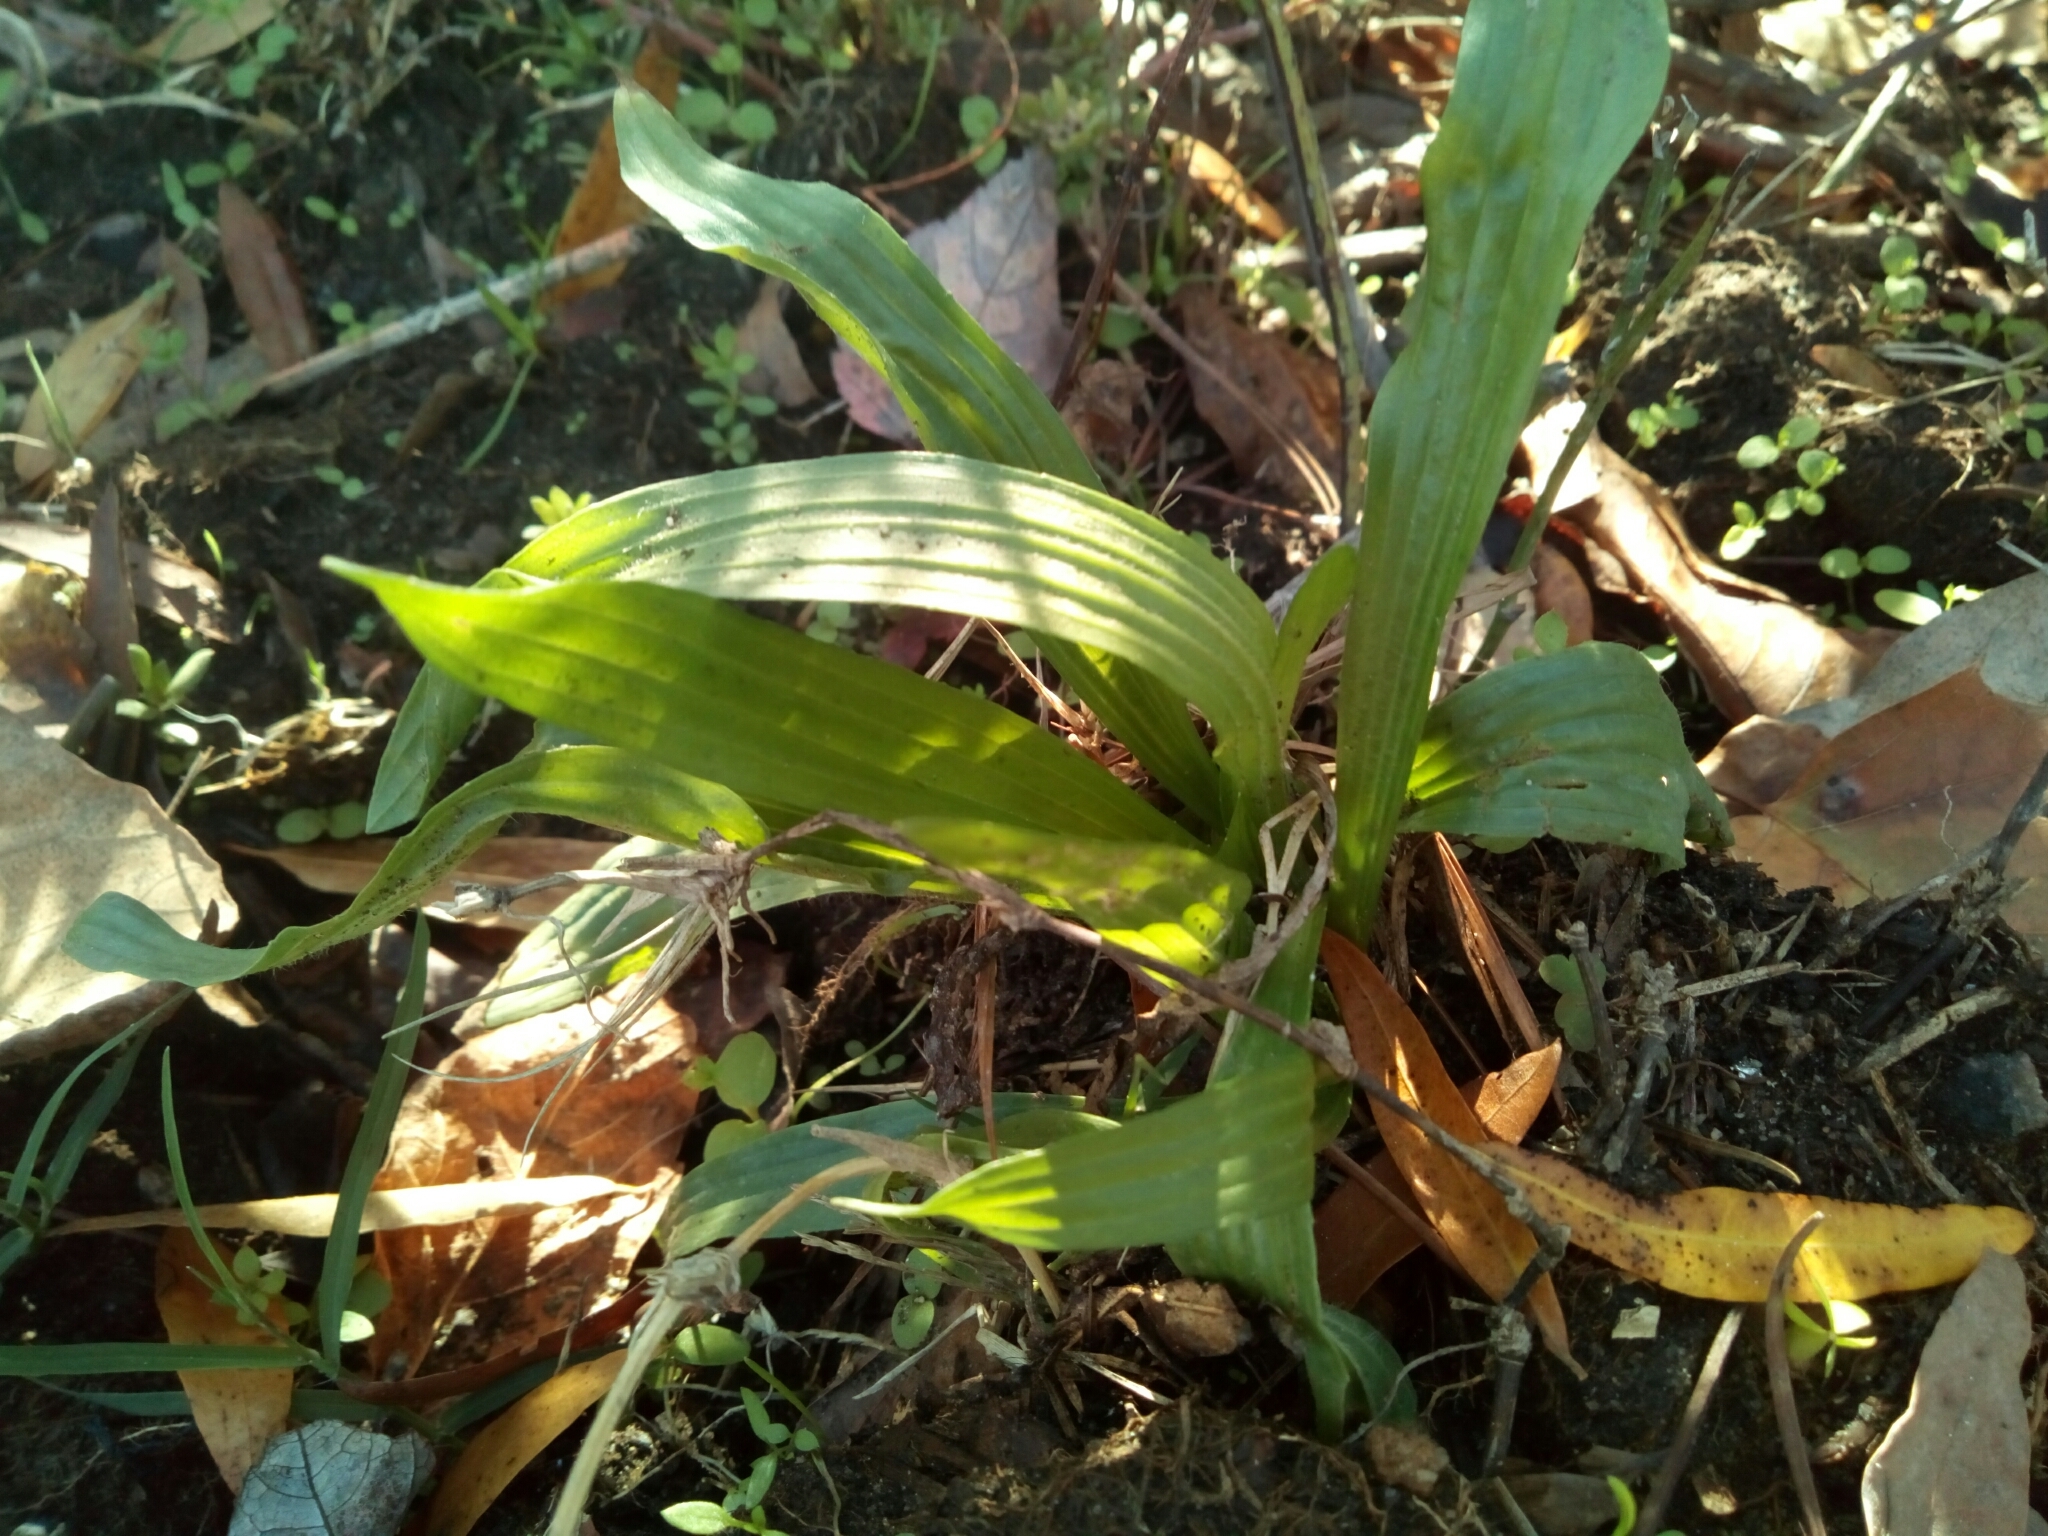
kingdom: Plantae
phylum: Tracheophyta
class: Magnoliopsida
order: Lamiales
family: Plantaginaceae
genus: Plantago
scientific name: Plantago lanceolata
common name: Ribwort plantain
